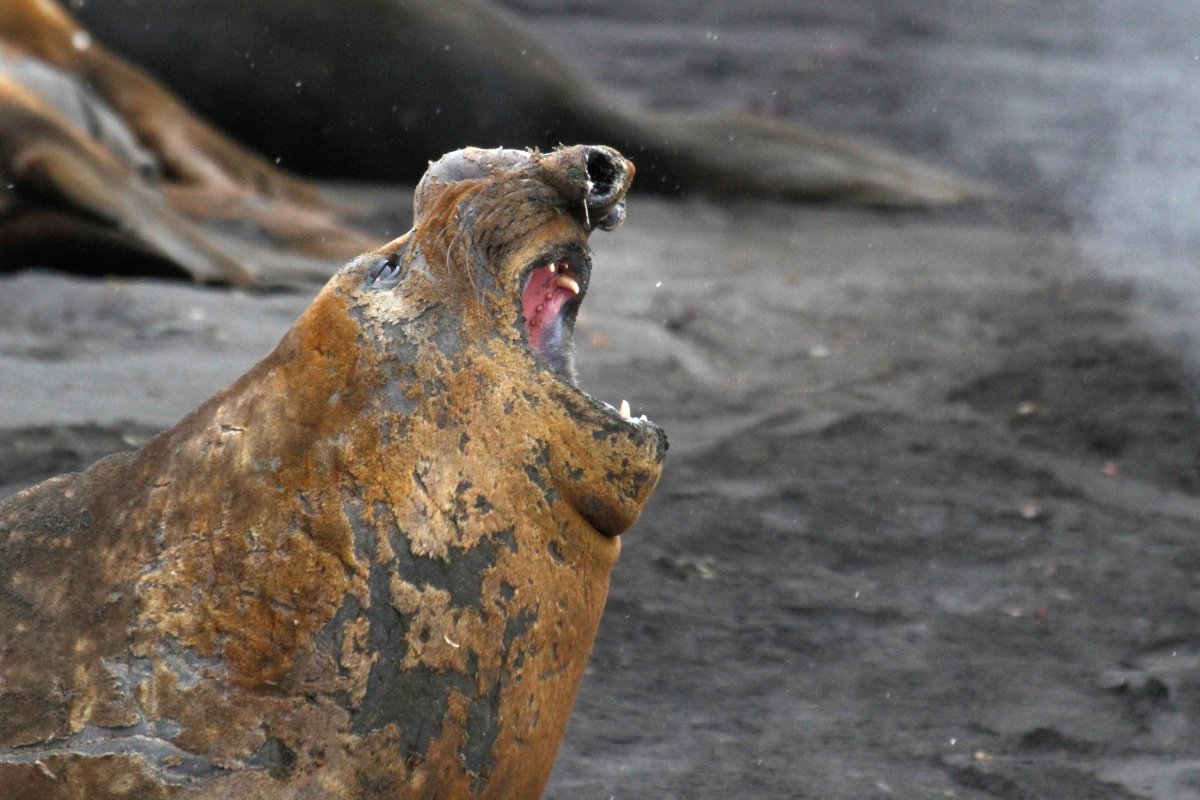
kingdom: Animalia
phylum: Chordata
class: Mammalia
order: Carnivora
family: Phocidae
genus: Mirounga
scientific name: Mirounga leonina
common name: Southern elephant seal
